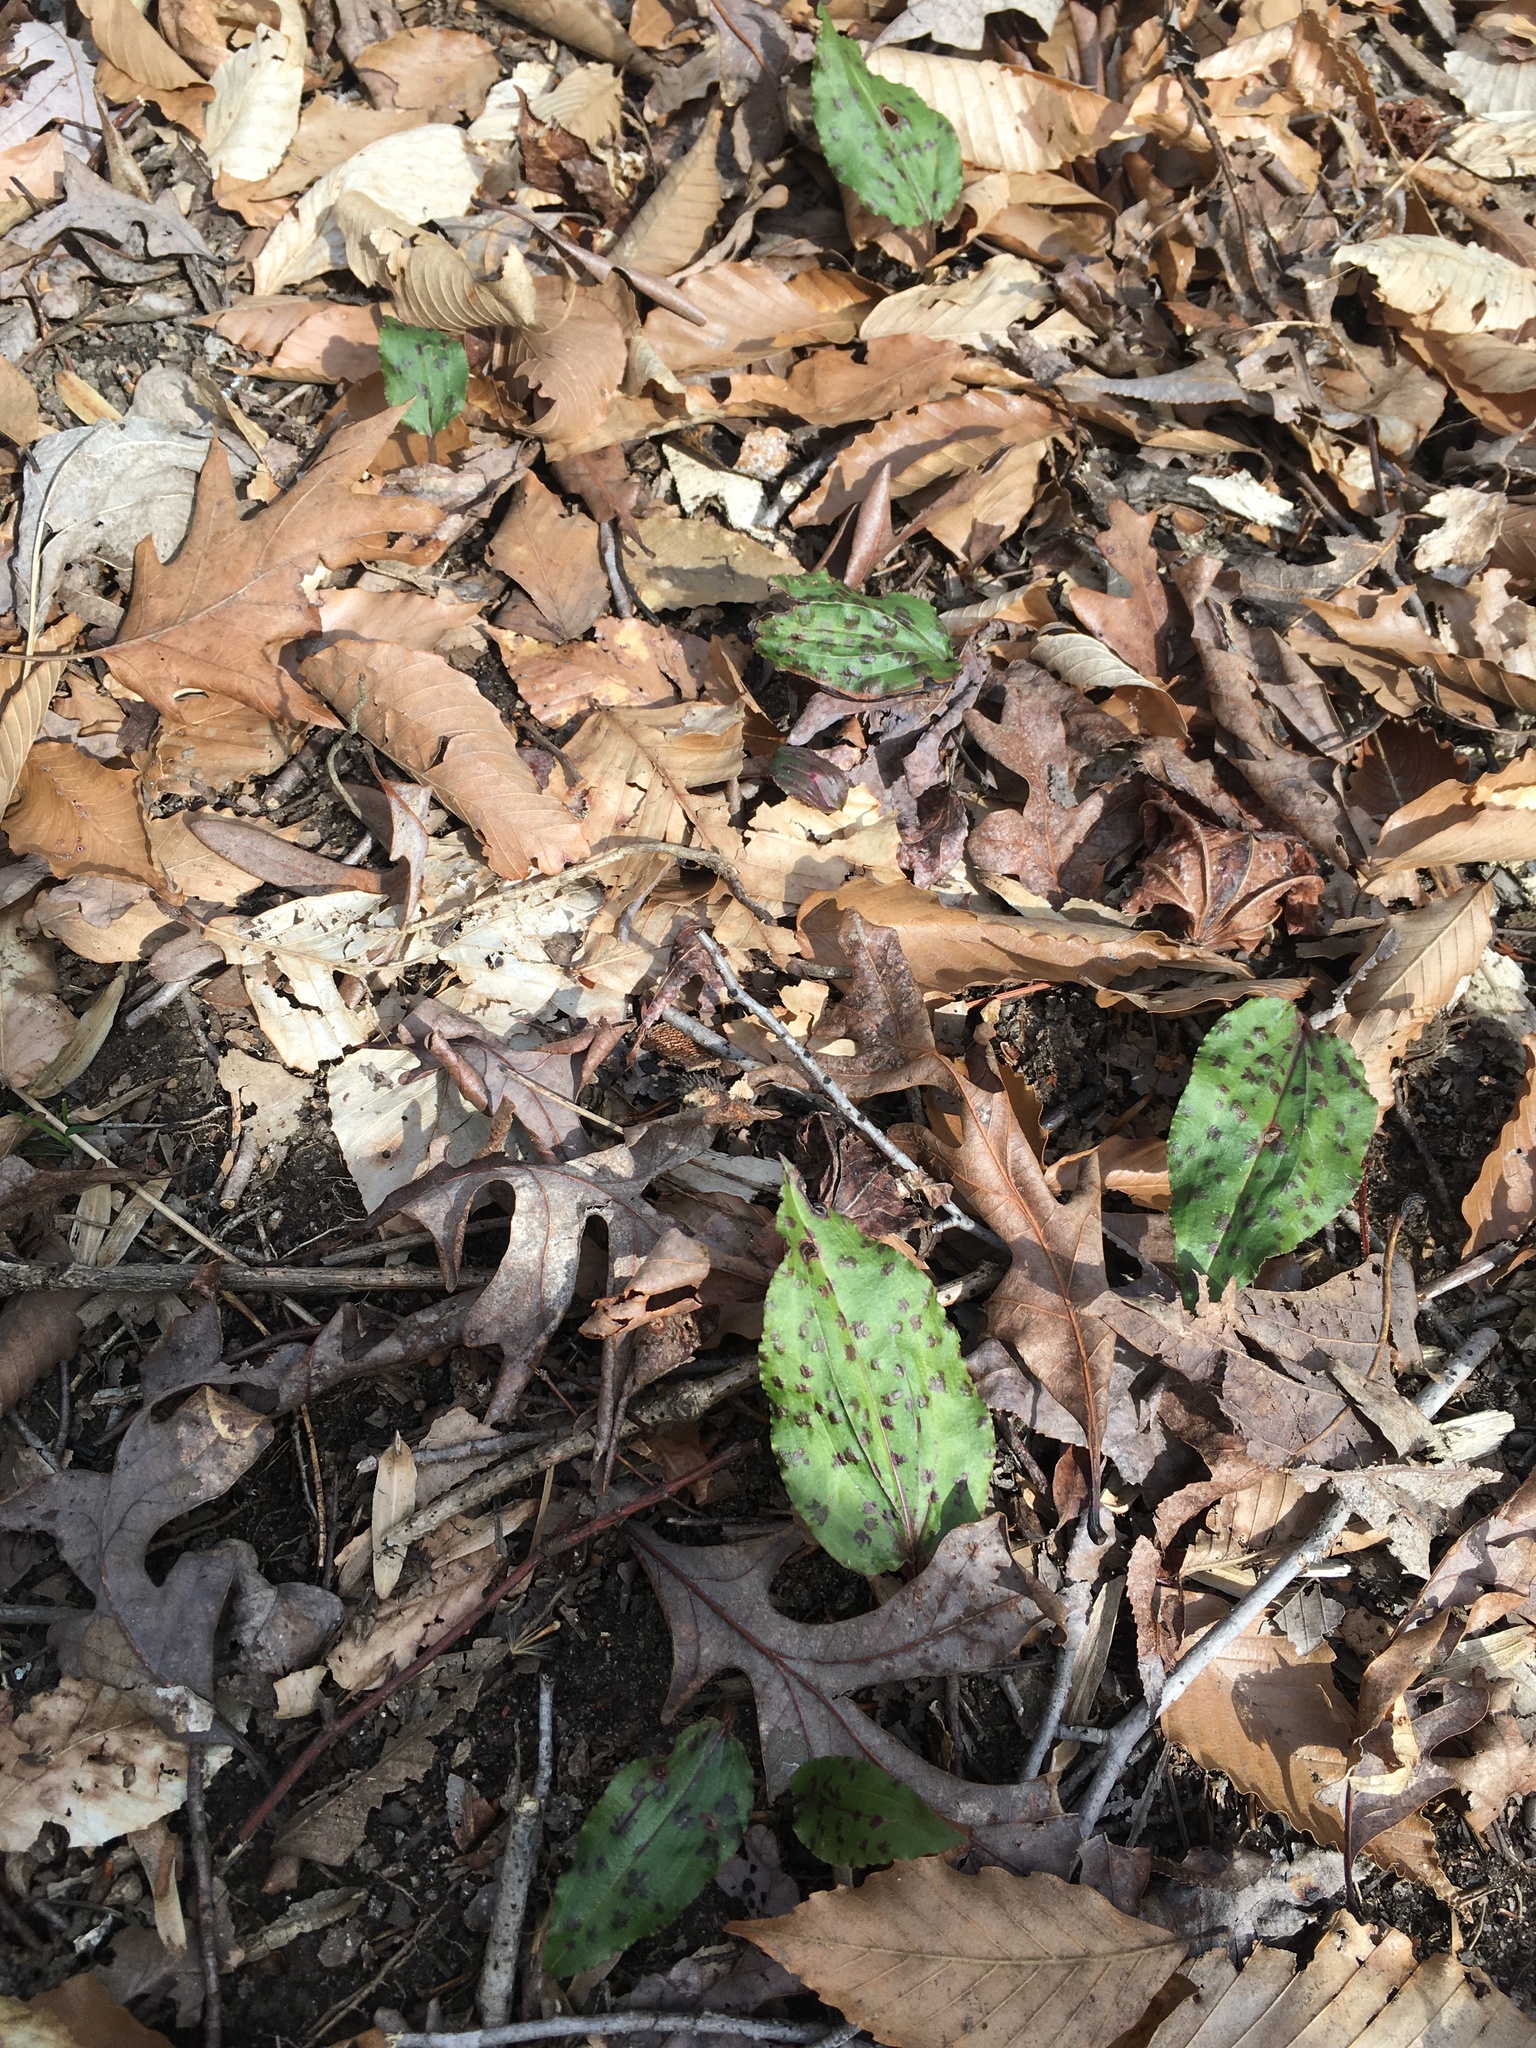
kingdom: Plantae
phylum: Tracheophyta
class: Liliopsida
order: Asparagales
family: Orchidaceae
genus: Tipularia
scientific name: Tipularia discolor
